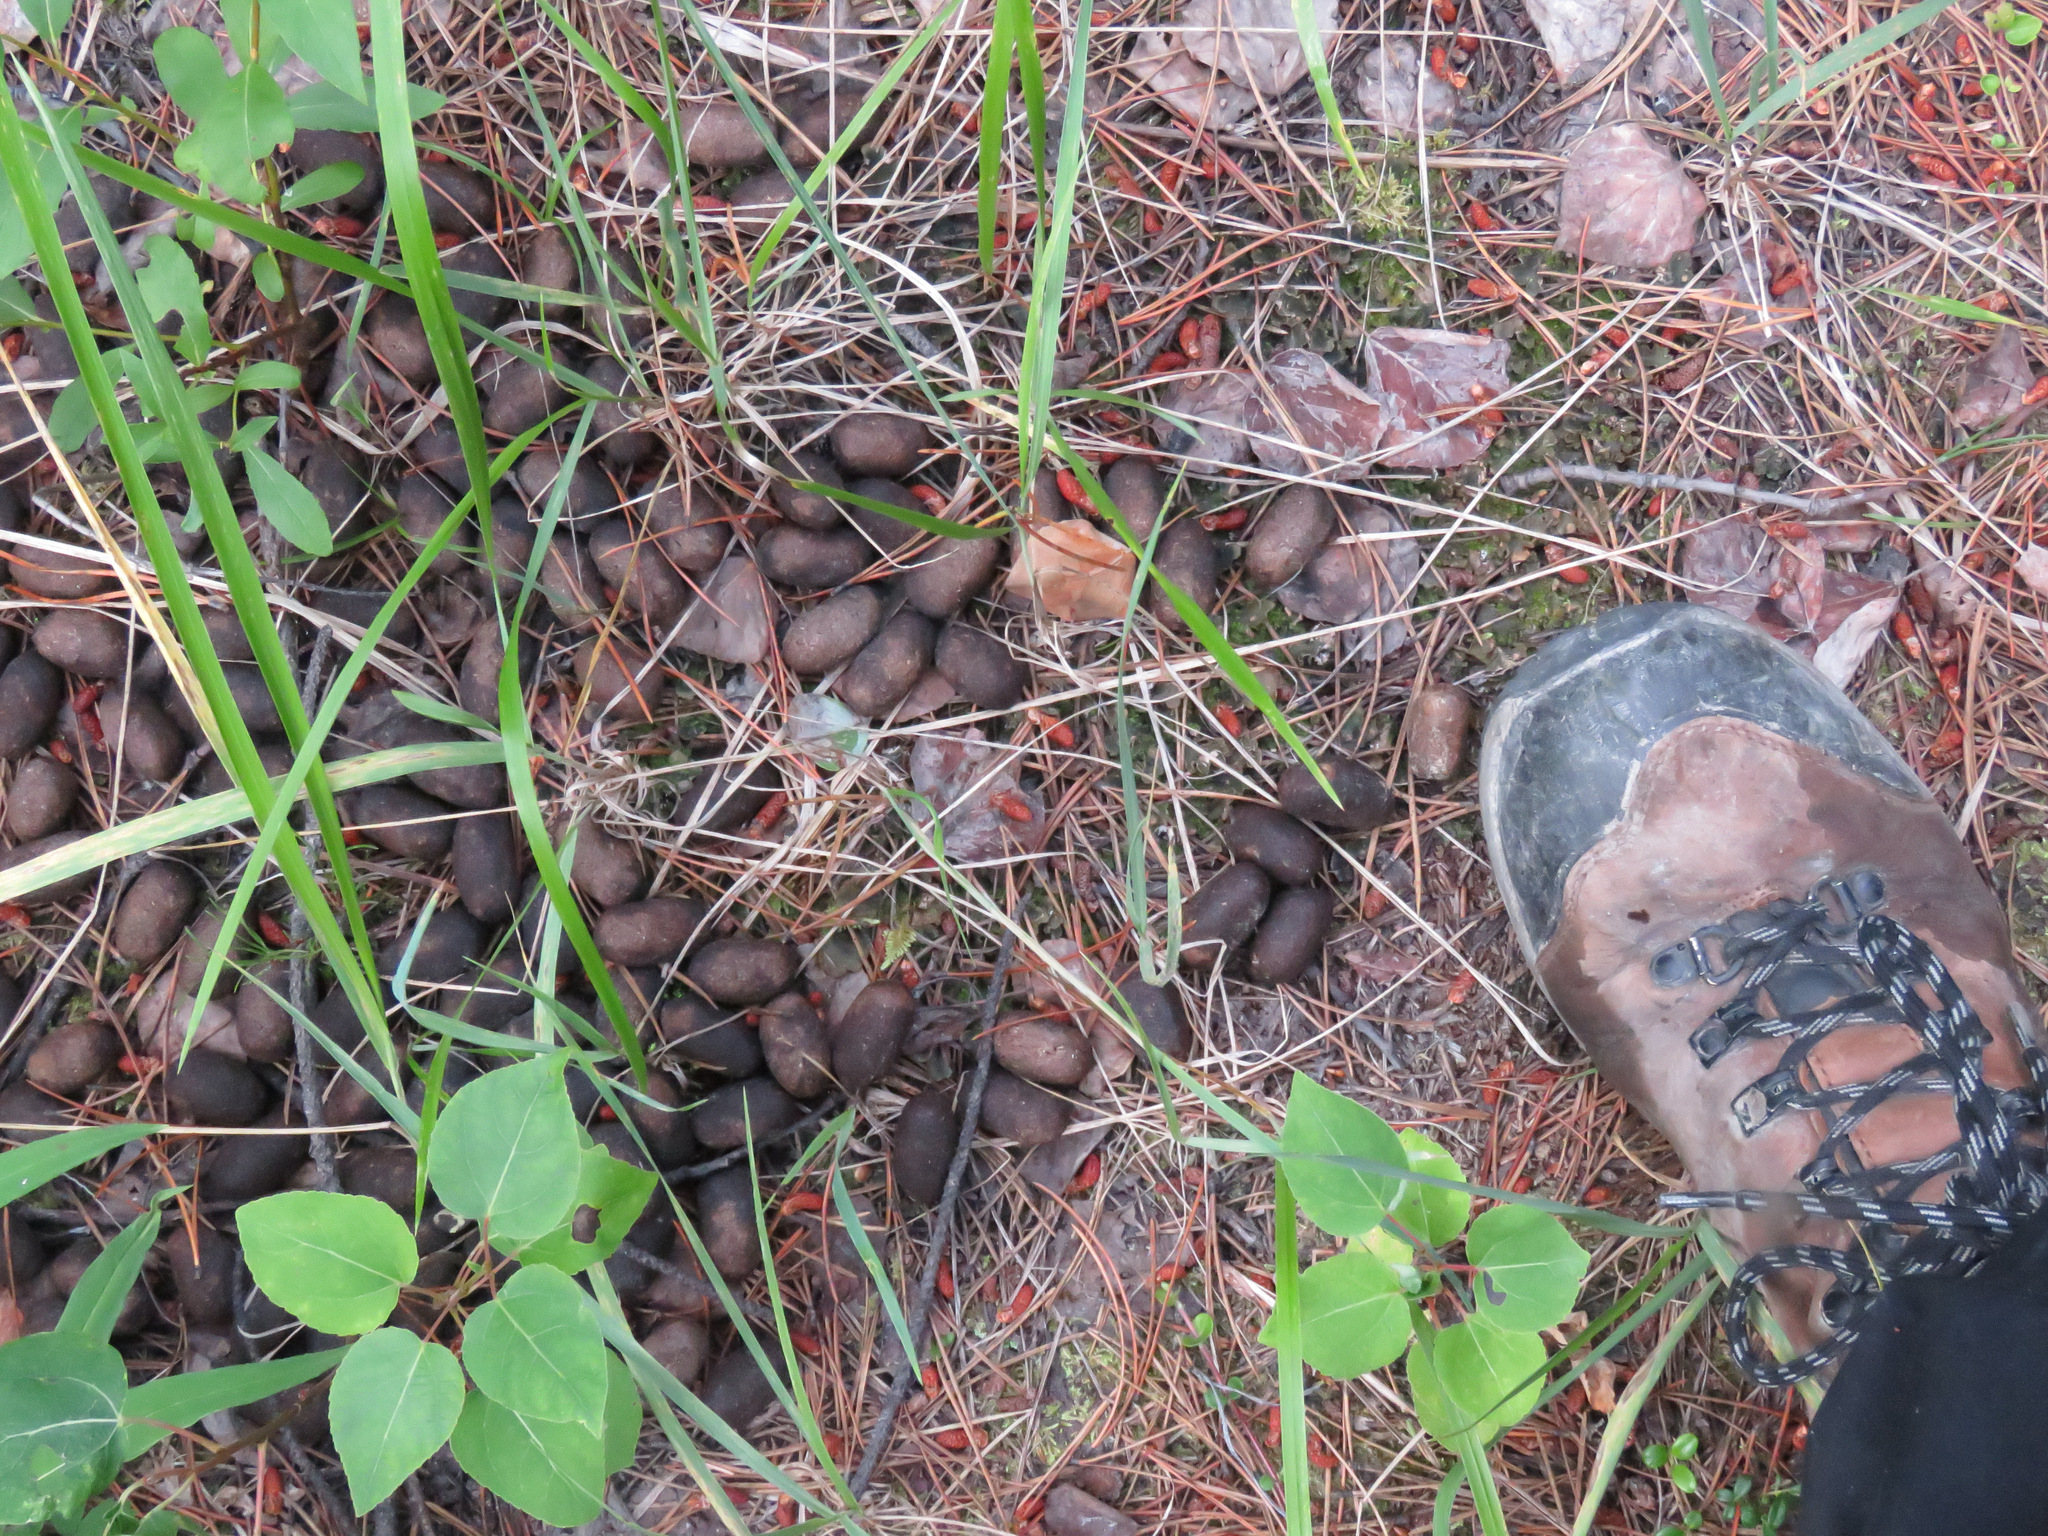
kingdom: Animalia
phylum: Chordata
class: Mammalia
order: Artiodactyla
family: Cervidae
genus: Alces
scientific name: Alces alces
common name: Moose
